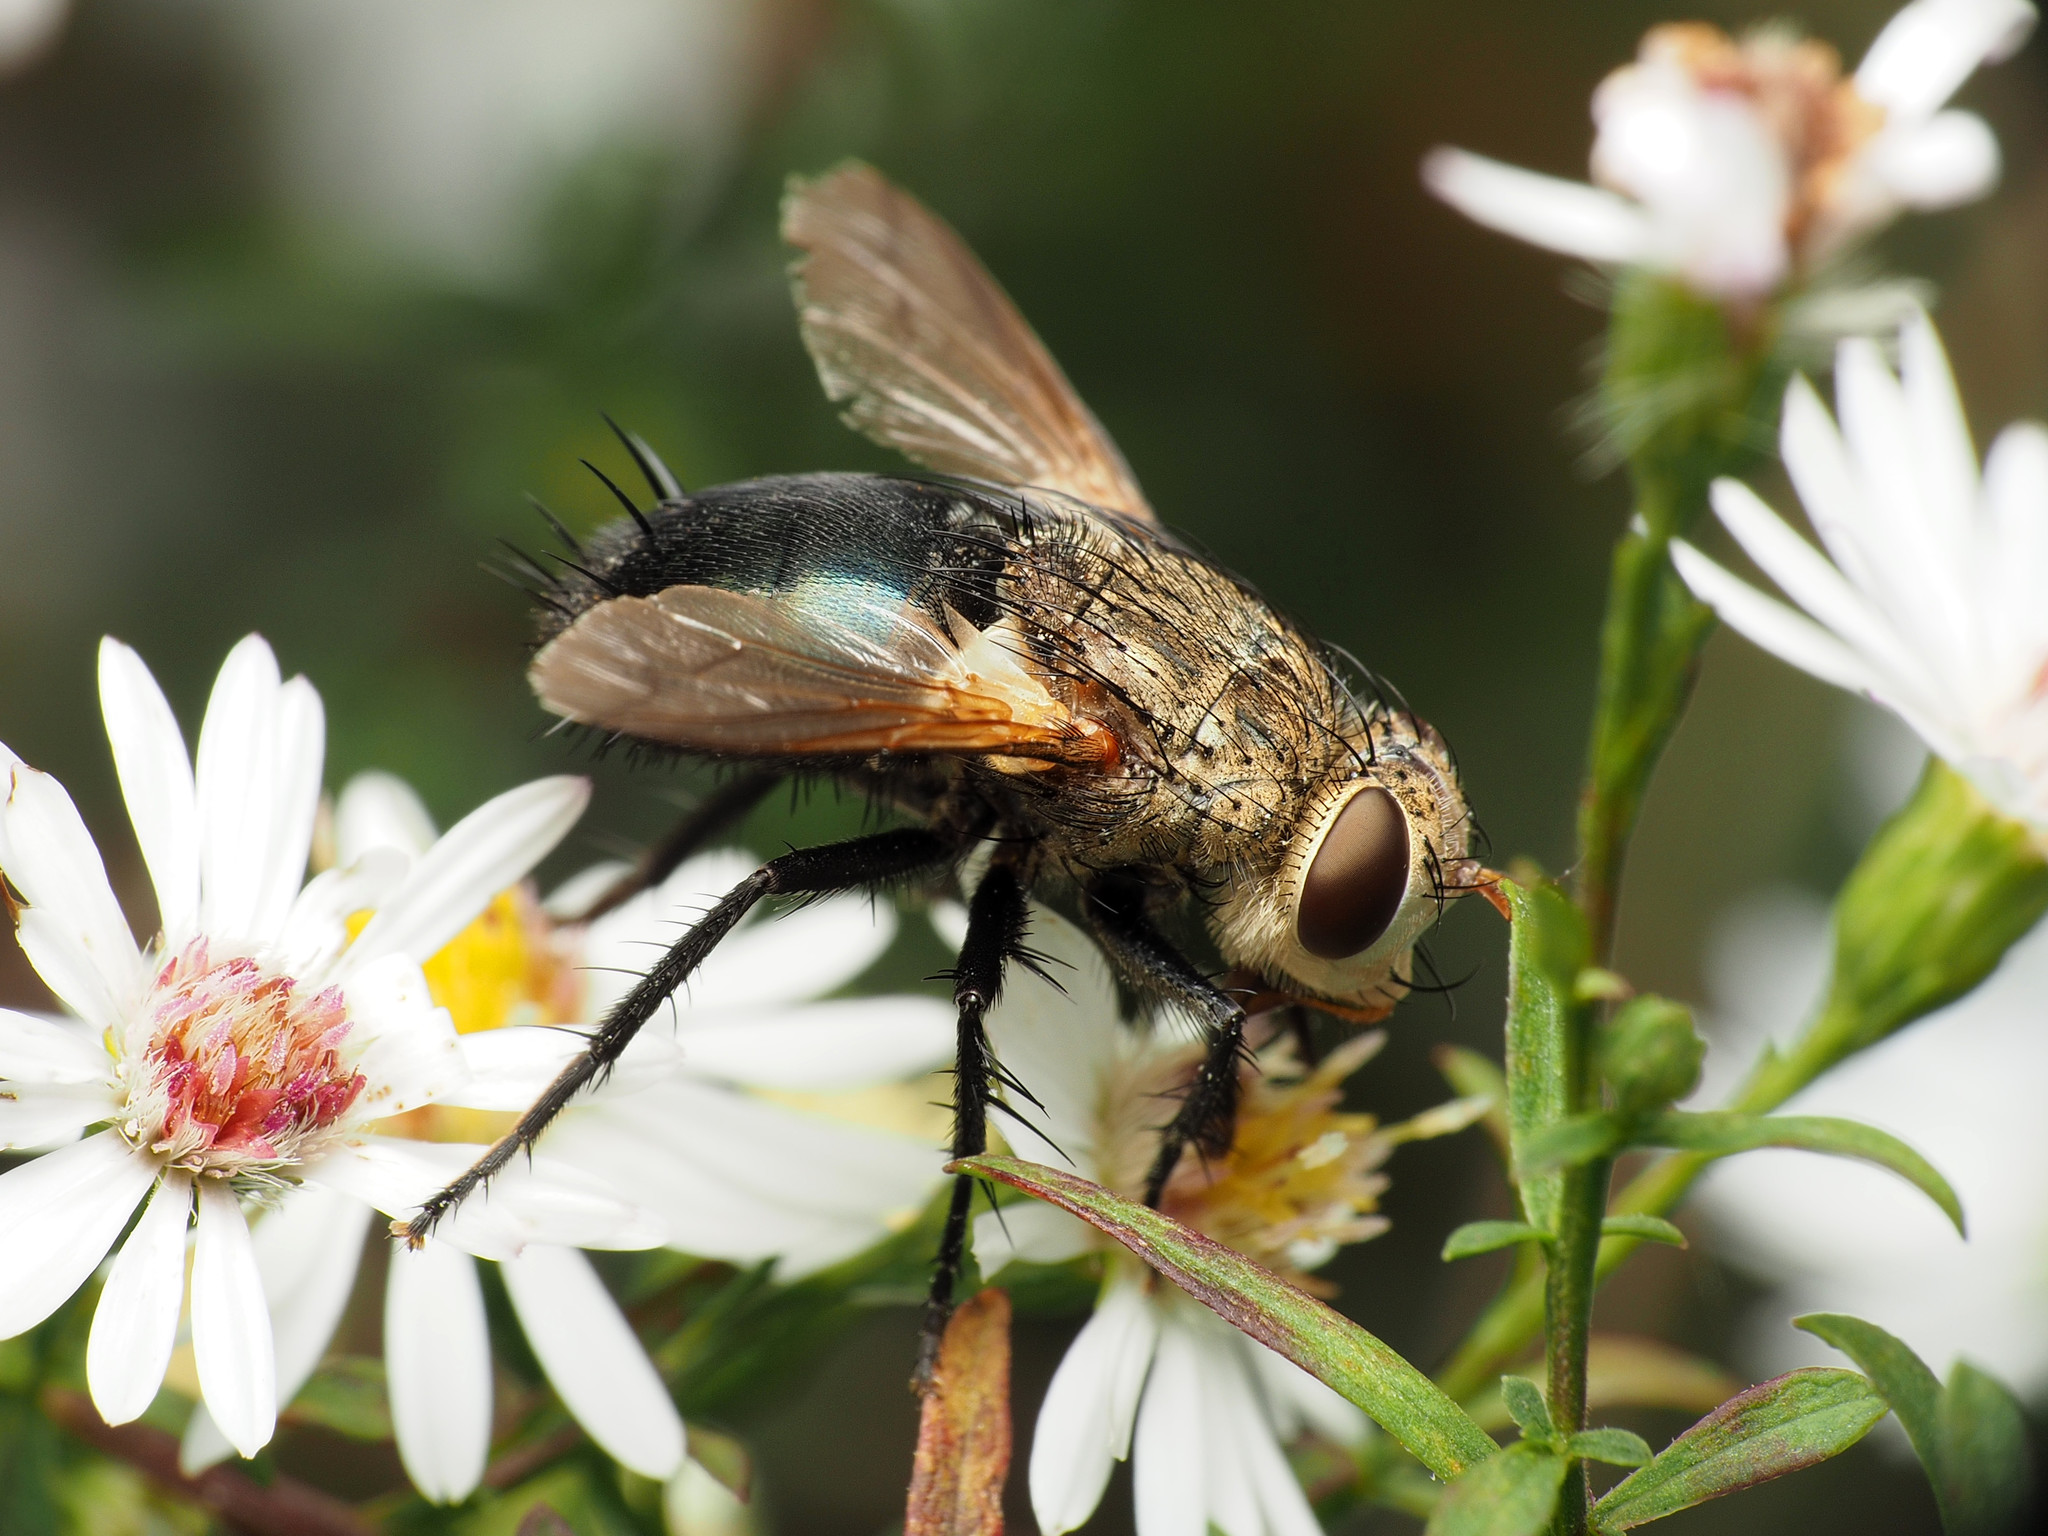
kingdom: Animalia
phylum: Arthropoda
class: Insecta
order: Diptera
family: Tachinidae
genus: Archytas
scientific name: Archytas
